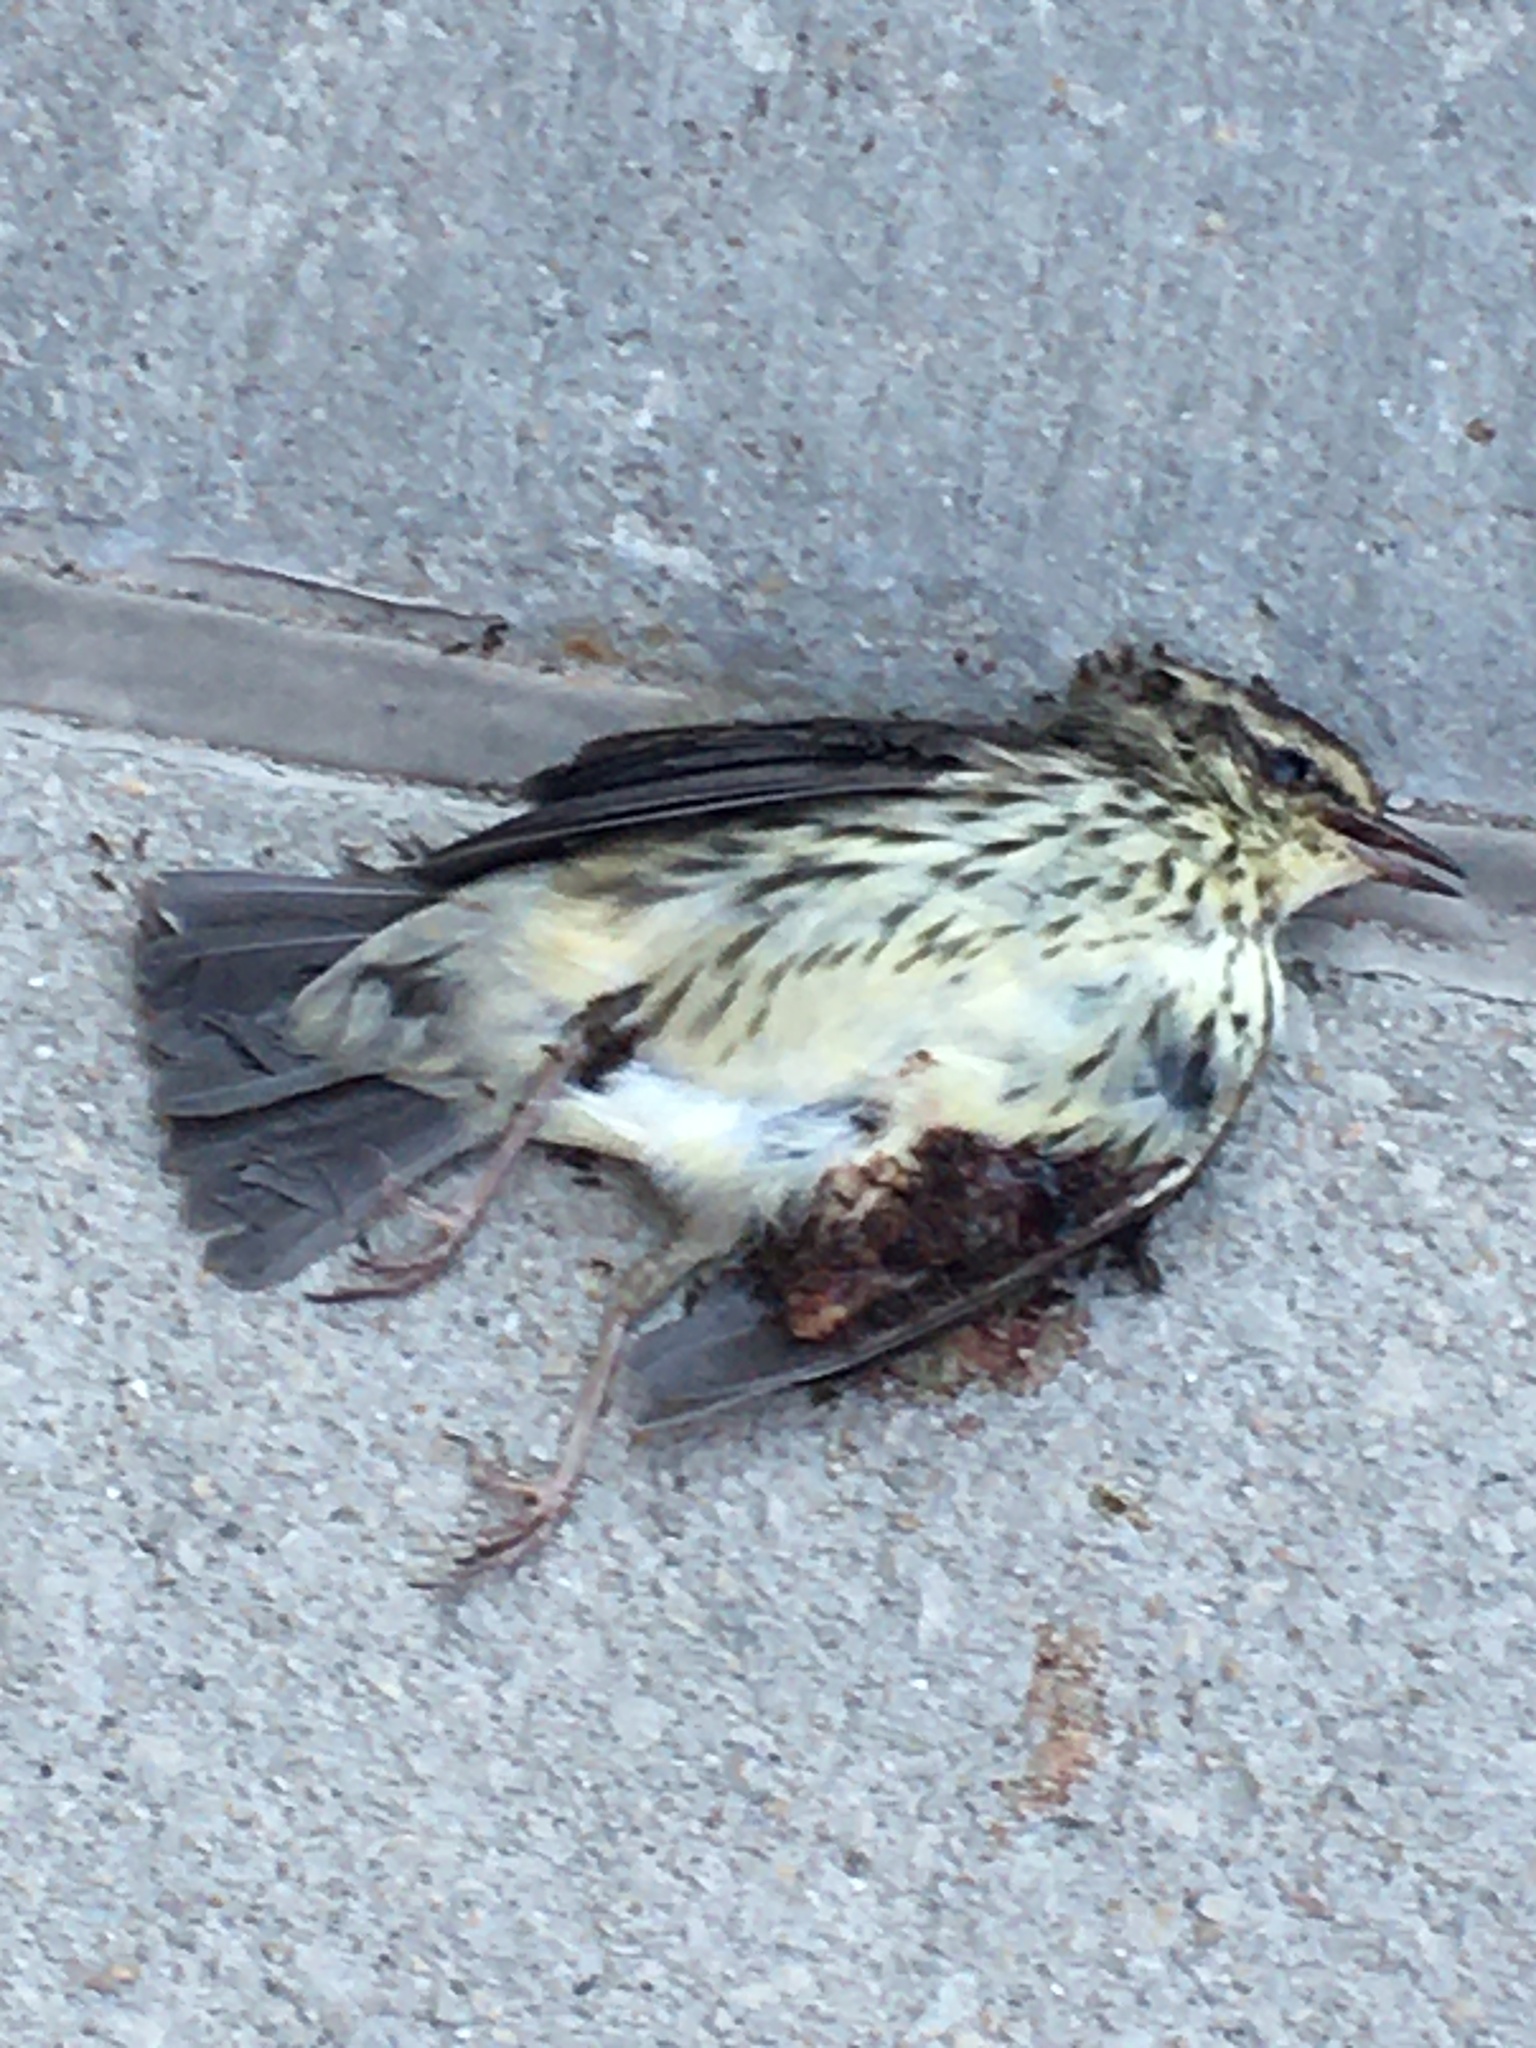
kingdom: Animalia
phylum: Chordata
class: Aves
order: Passeriformes
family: Parulidae
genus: Parkesia
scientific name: Parkesia noveboracensis
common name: Northern waterthrush
